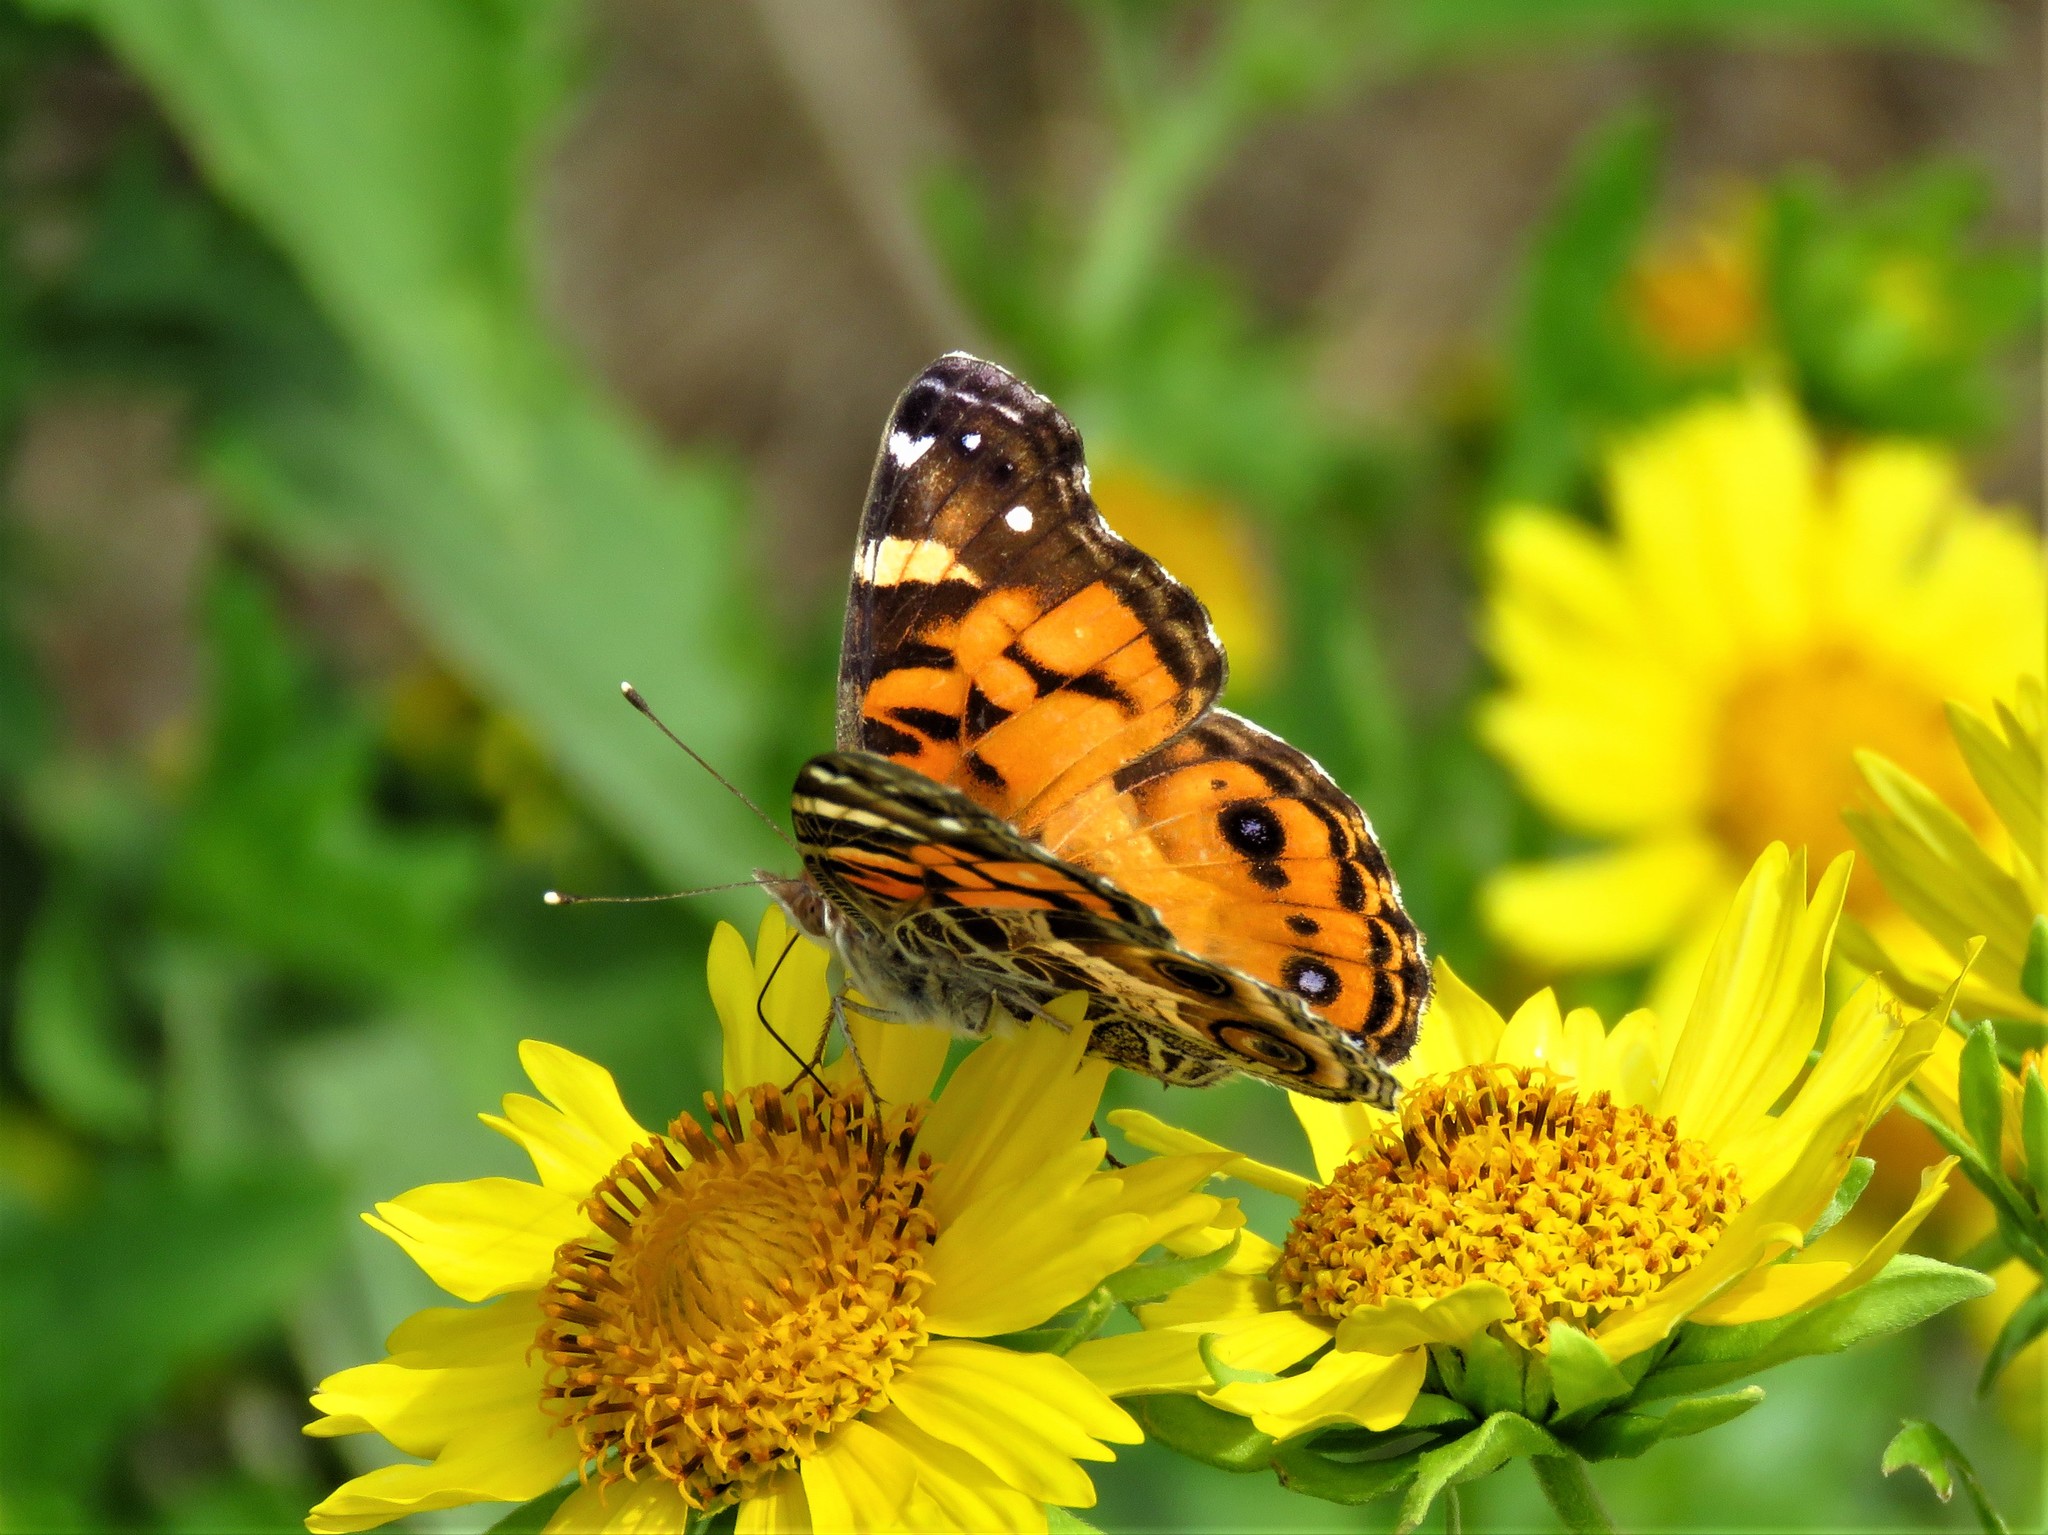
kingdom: Animalia
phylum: Arthropoda
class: Insecta
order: Lepidoptera
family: Nymphalidae
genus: Vanessa
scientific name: Vanessa virginiensis
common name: American lady
